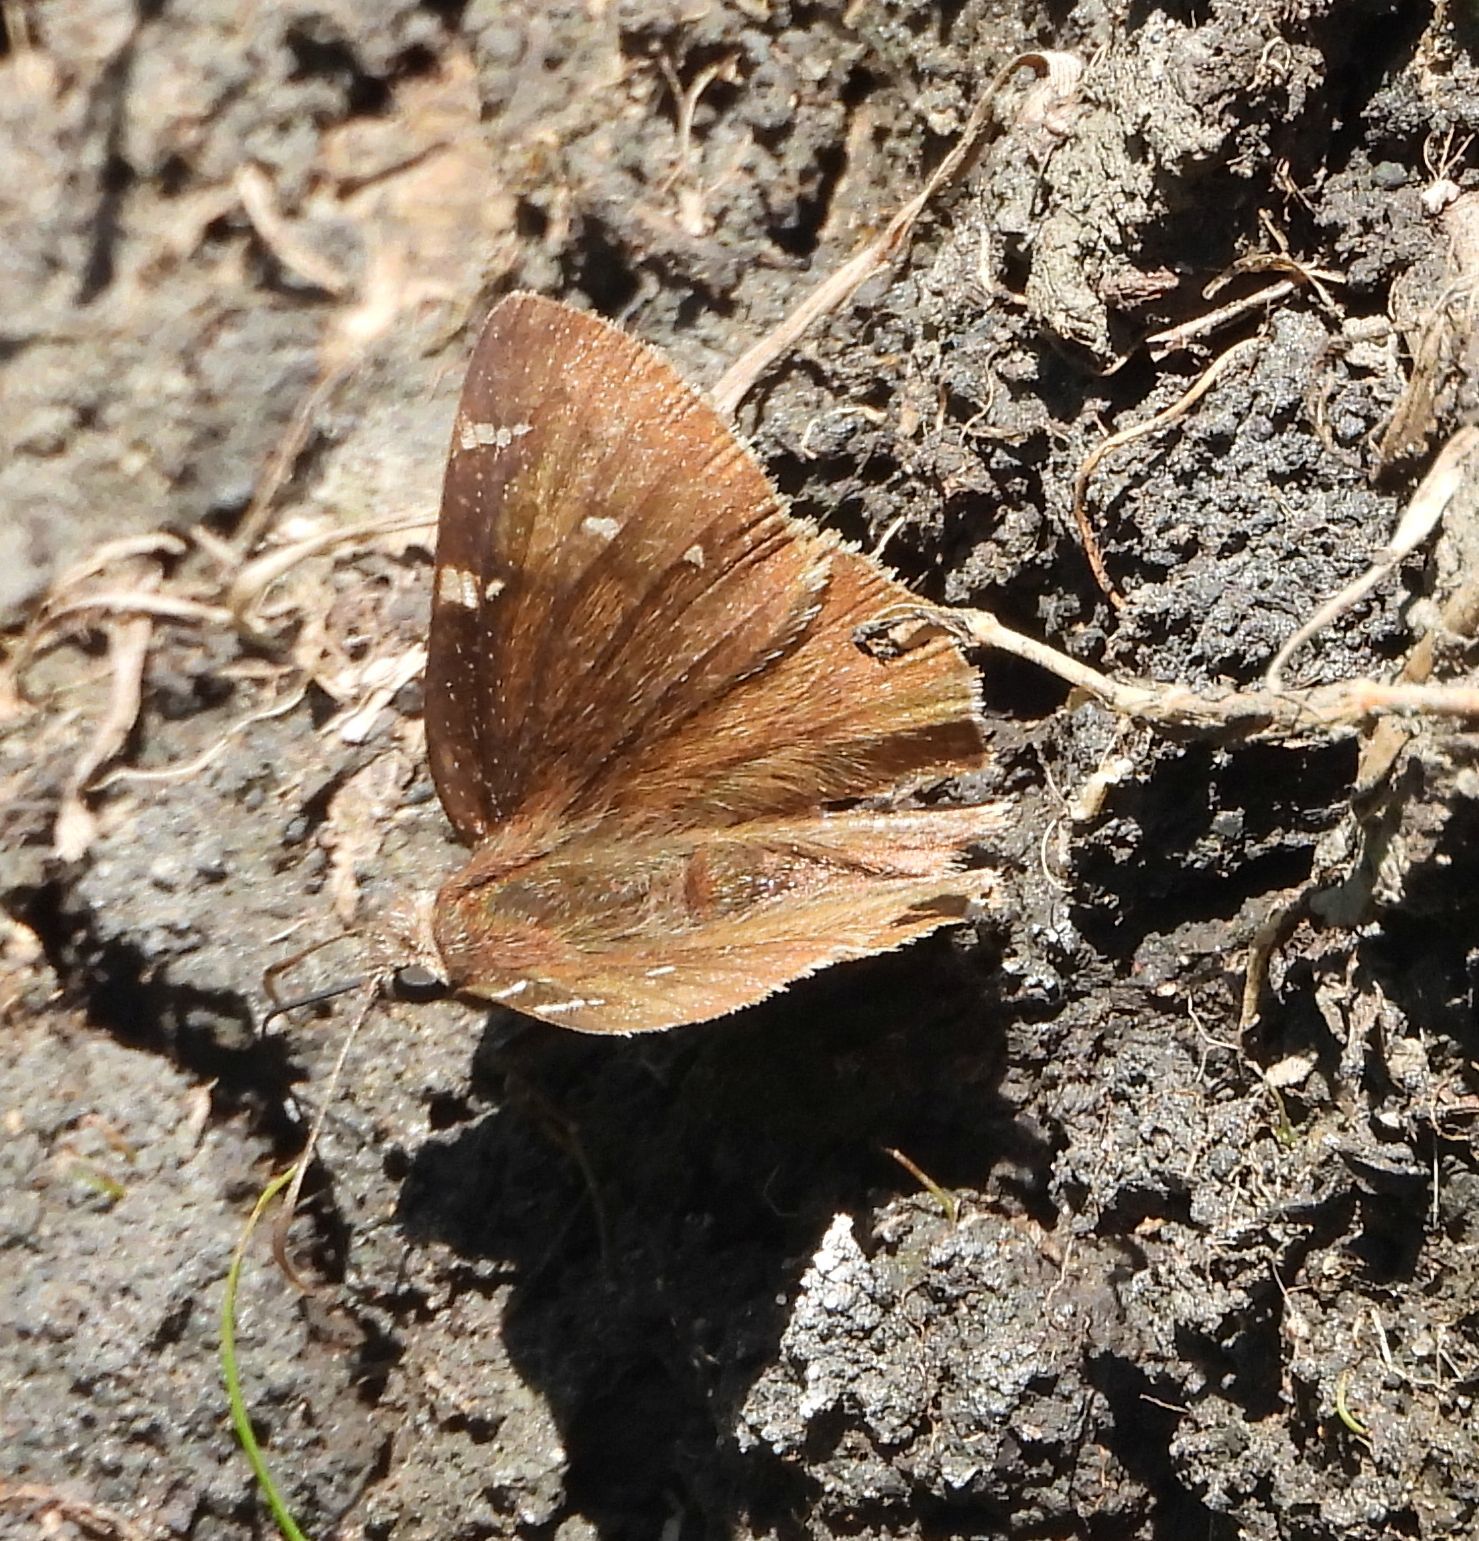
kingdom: Animalia
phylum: Arthropoda
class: Insecta
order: Lepidoptera
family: Hesperiidae
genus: Thorybes
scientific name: Thorybes pylades
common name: Northern cloudywing
